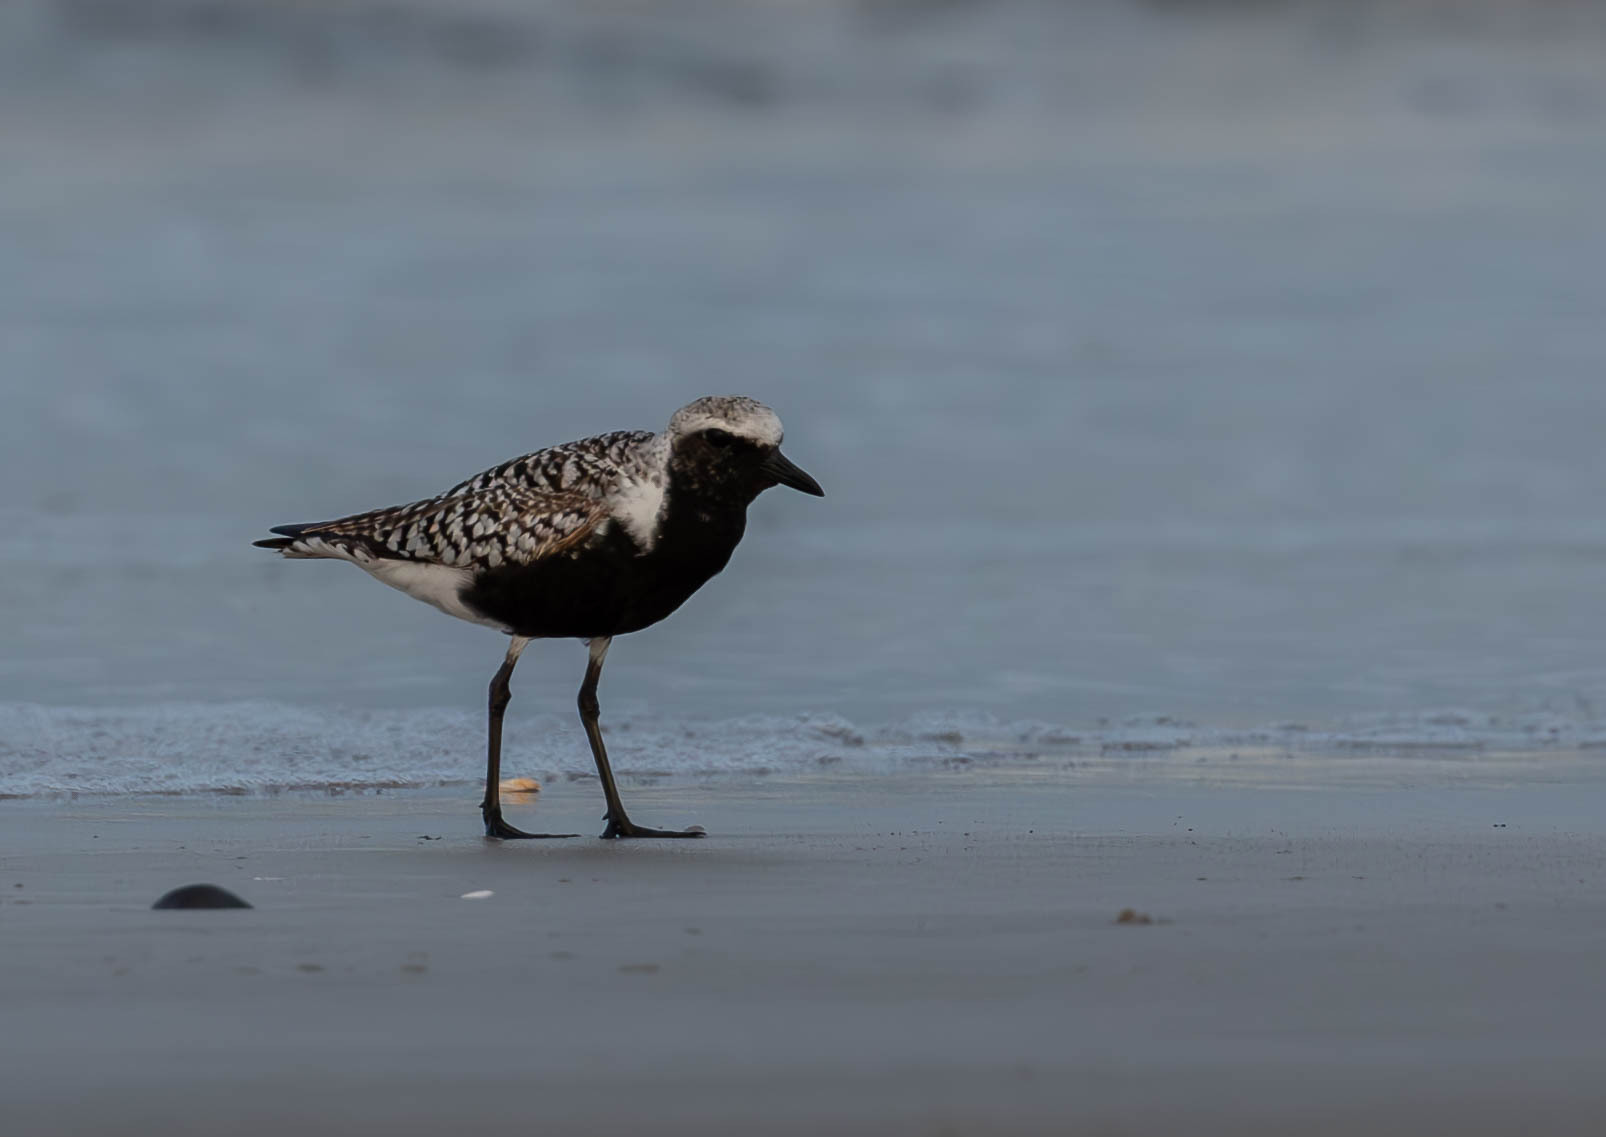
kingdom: Animalia
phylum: Chordata
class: Aves
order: Charadriiformes
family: Charadriidae
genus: Pluvialis
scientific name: Pluvialis squatarola
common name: Grey plover
